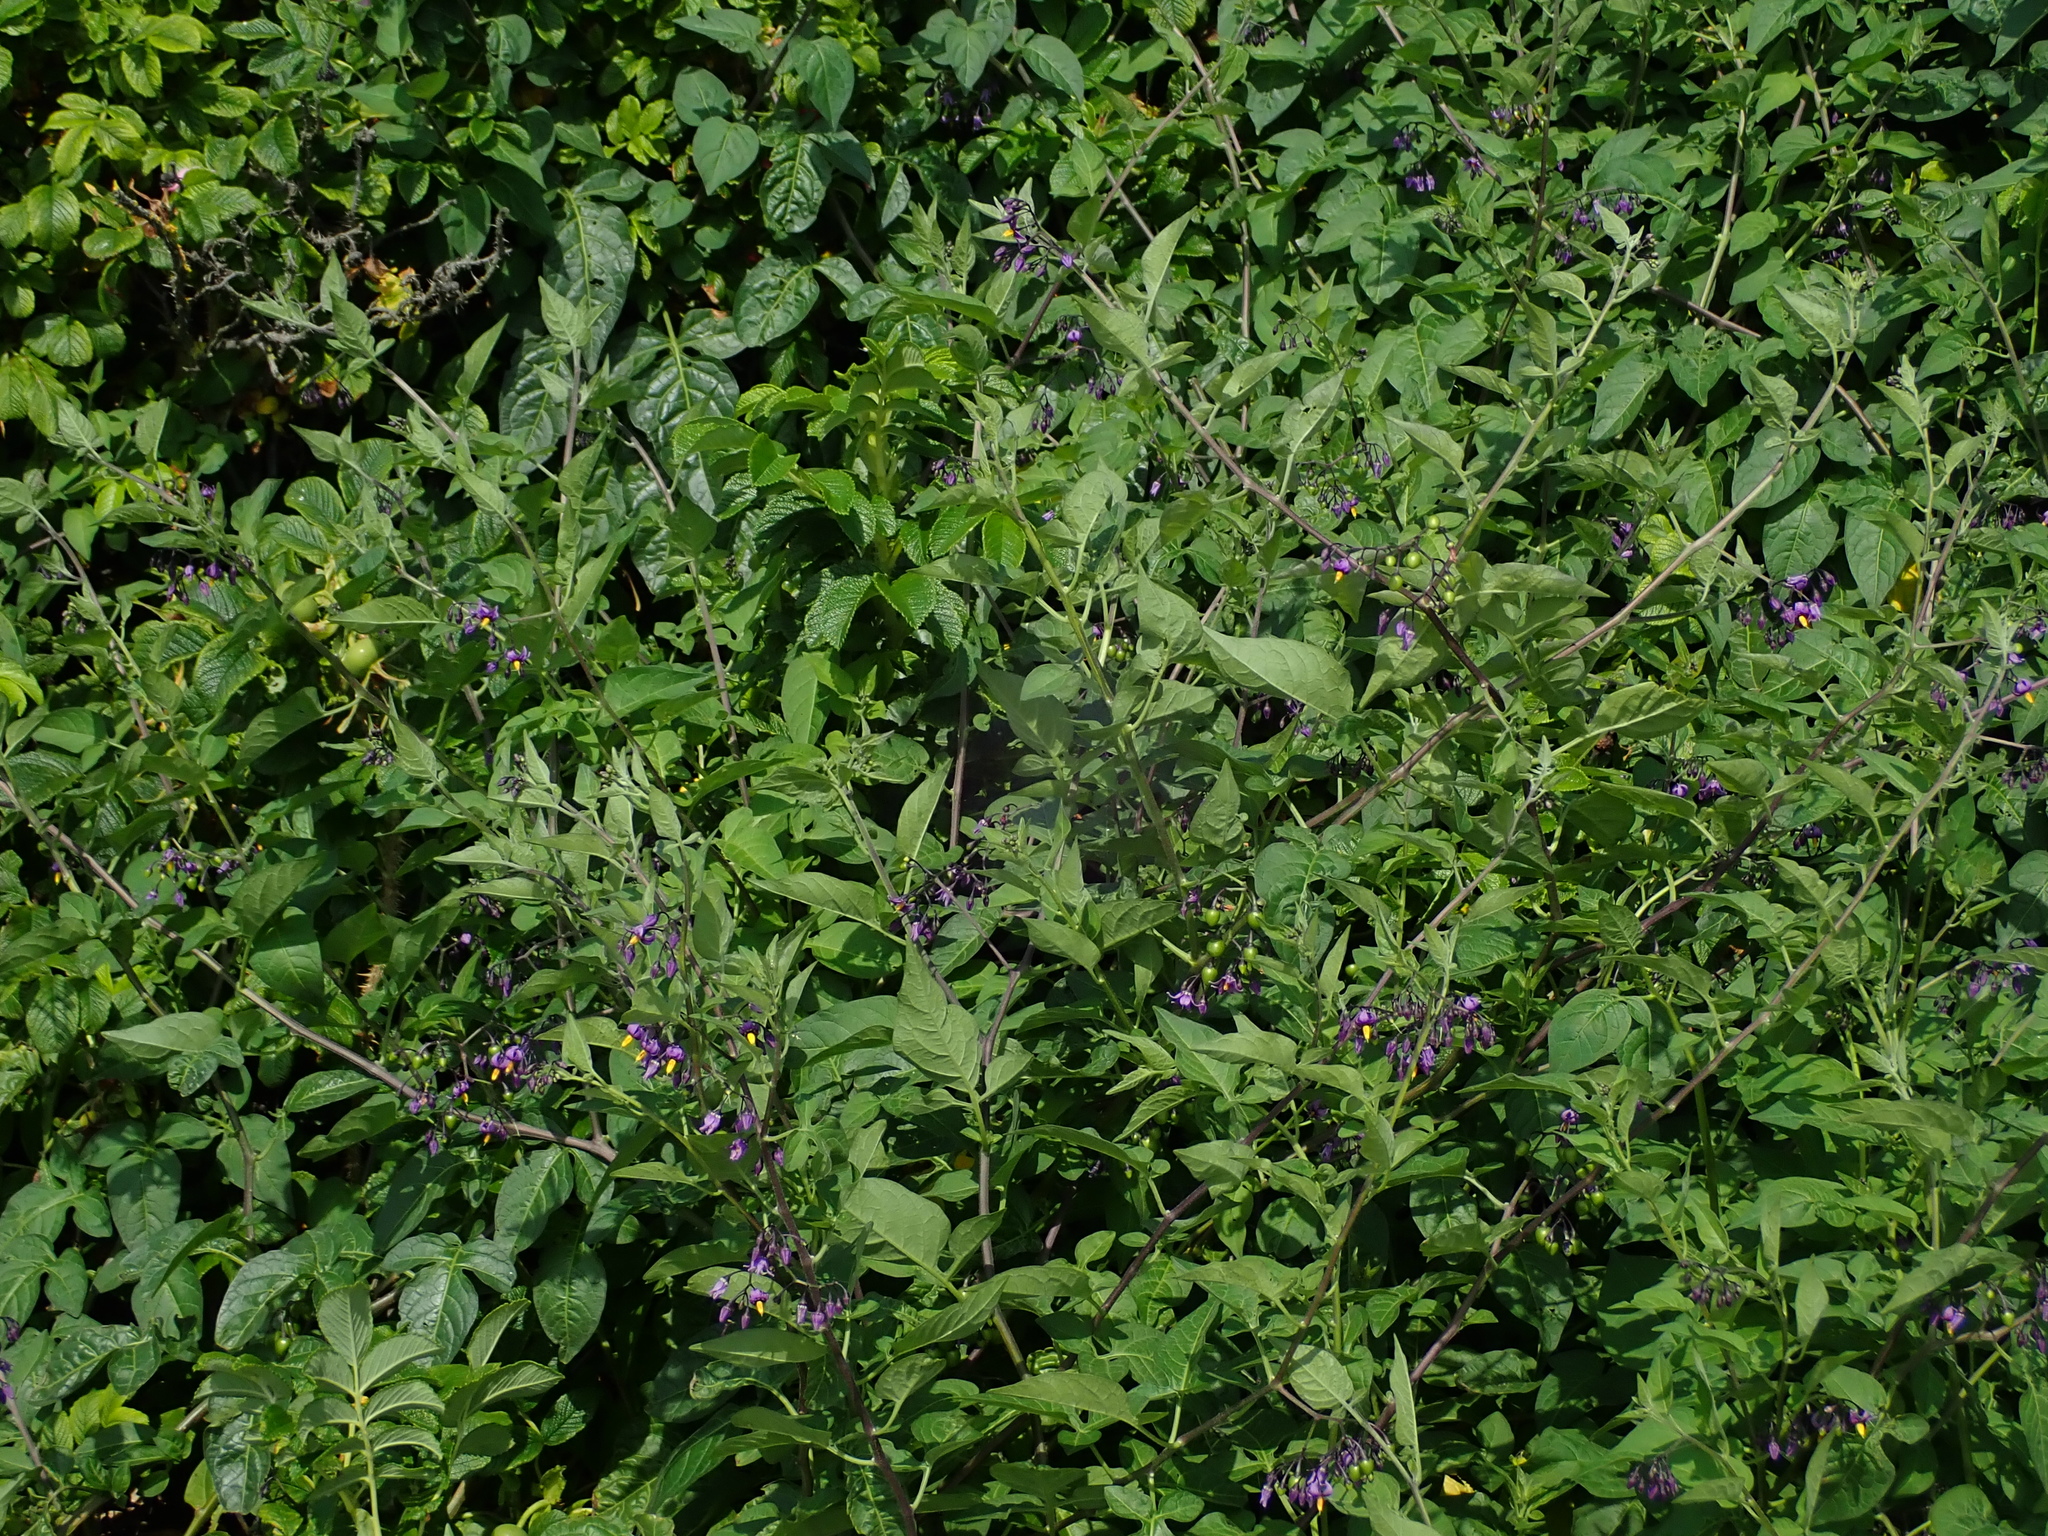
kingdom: Plantae
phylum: Tracheophyta
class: Magnoliopsida
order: Solanales
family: Solanaceae
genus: Solanum
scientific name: Solanum dulcamara
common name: Climbing nightshade
